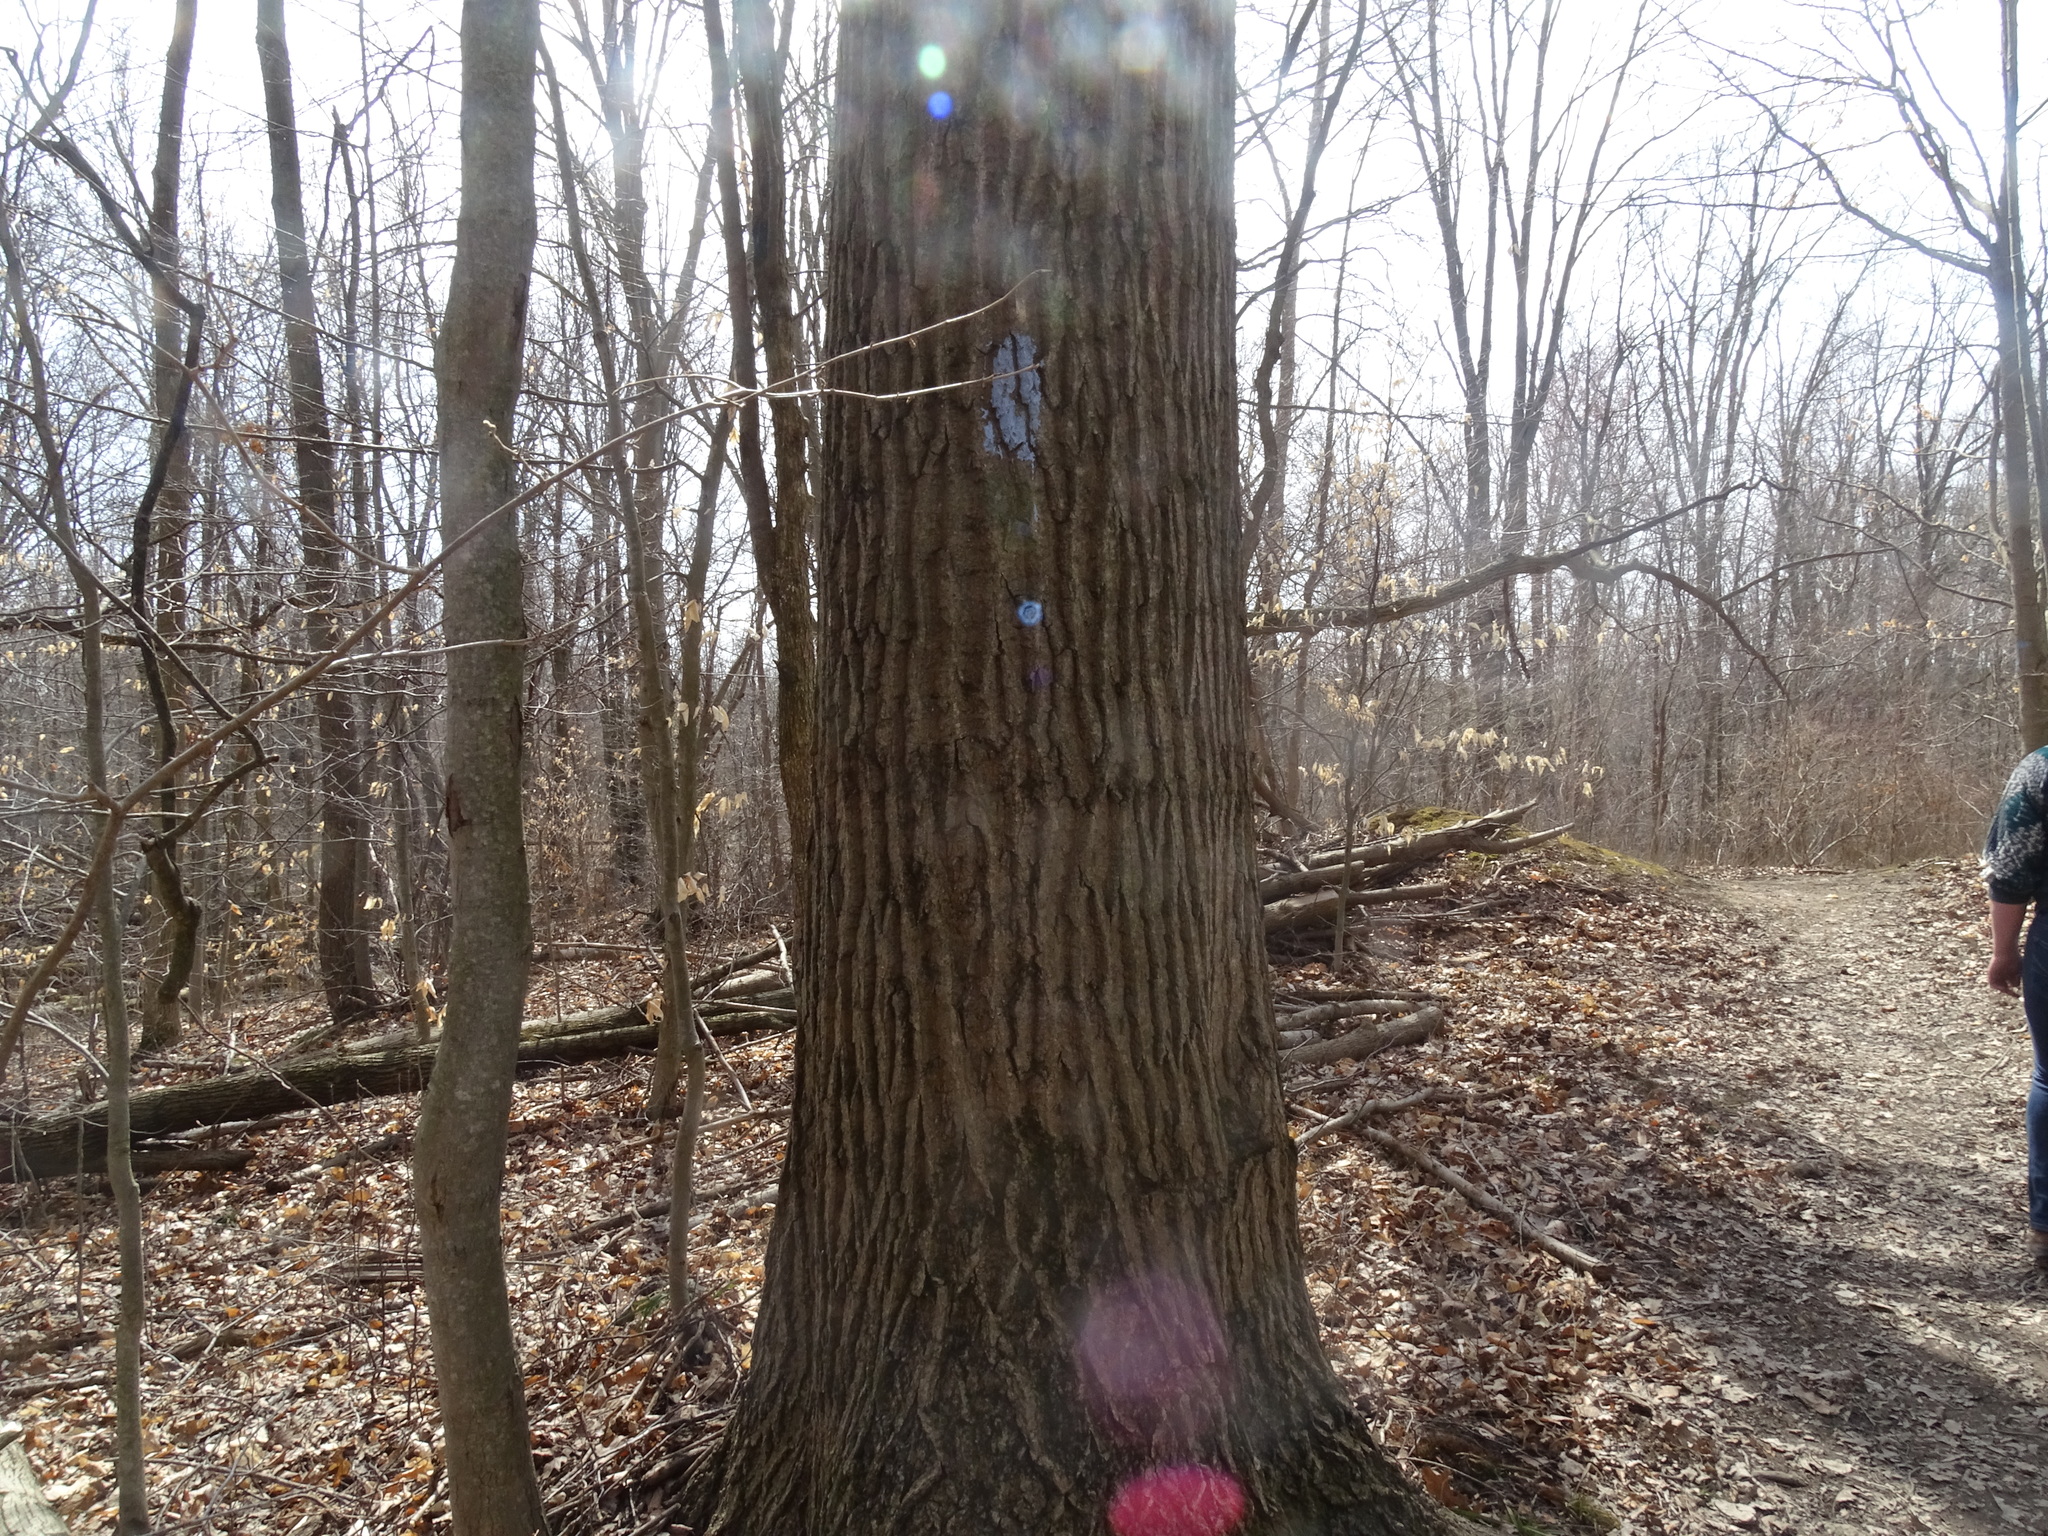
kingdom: Plantae
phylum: Tracheophyta
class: Magnoliopsida
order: Fagales
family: Fagaceae
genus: Quercus
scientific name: Quercus rubra
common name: Red oak
